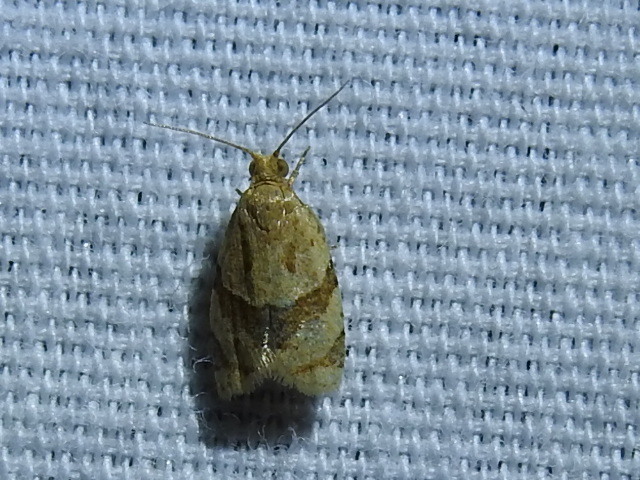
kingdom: Animalia
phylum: Arthropoda
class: Insecta
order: Lepidoptera
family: Tortricidae
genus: Clepsis
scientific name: Clepsis peritana
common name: Garden tortrix
